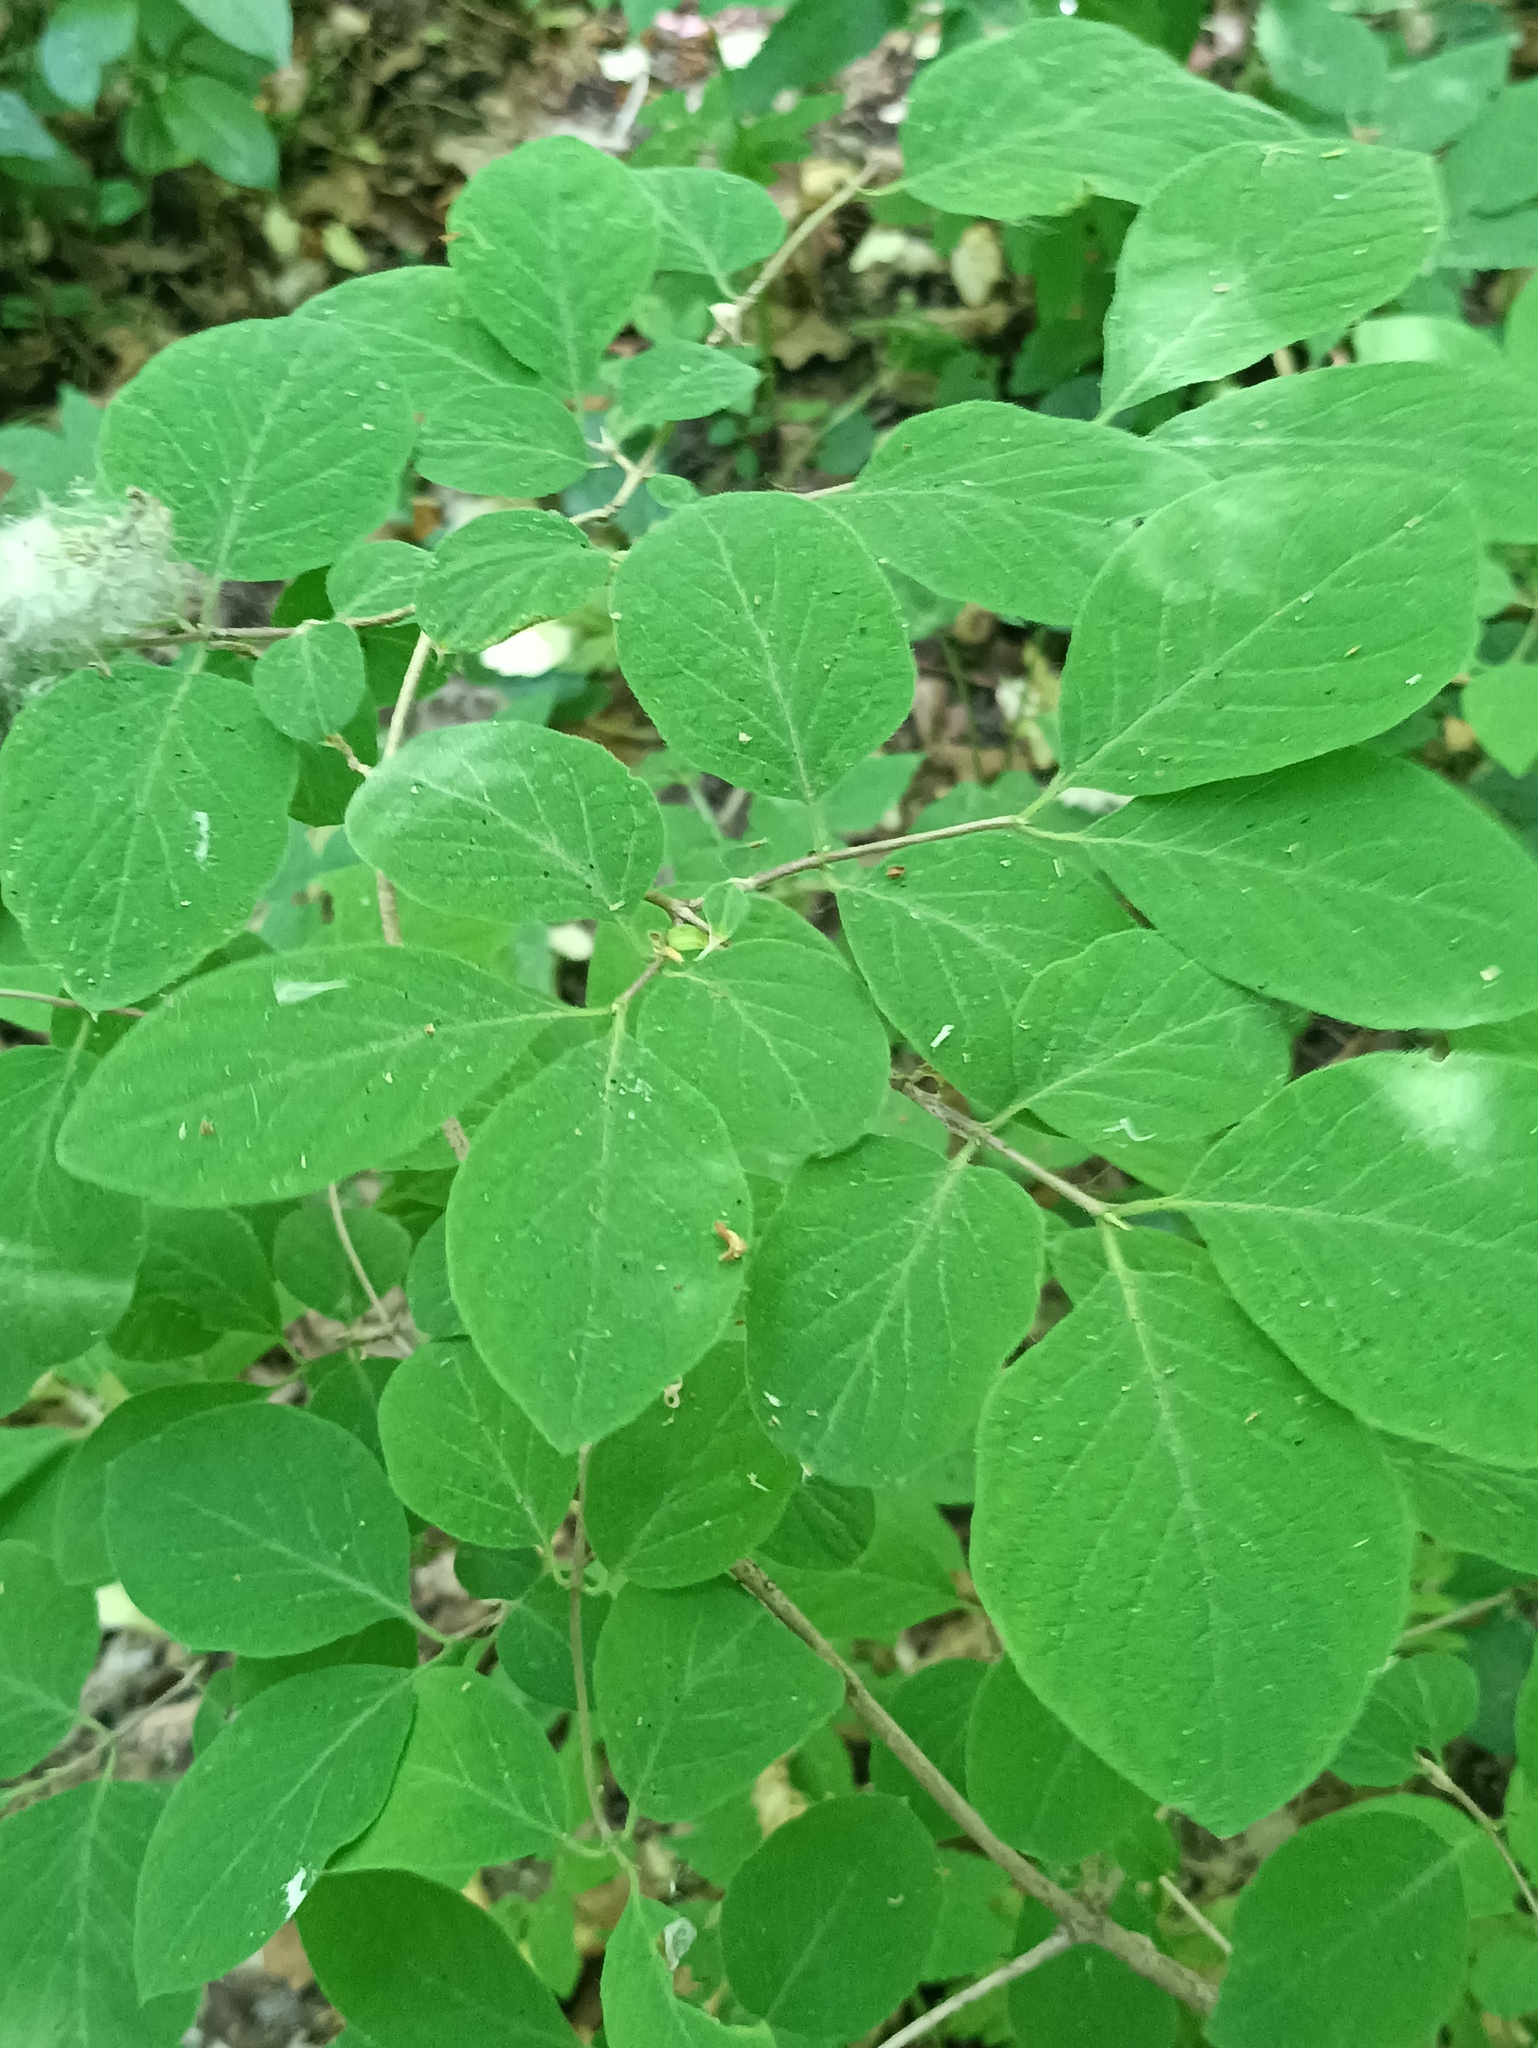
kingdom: Plantae
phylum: Tracheophyta
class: Magnoliopsida
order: Dipsacales
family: Caprifoliaceae
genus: Lonicera
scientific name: Lonicera xylosteum
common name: Fly honeysuckle
